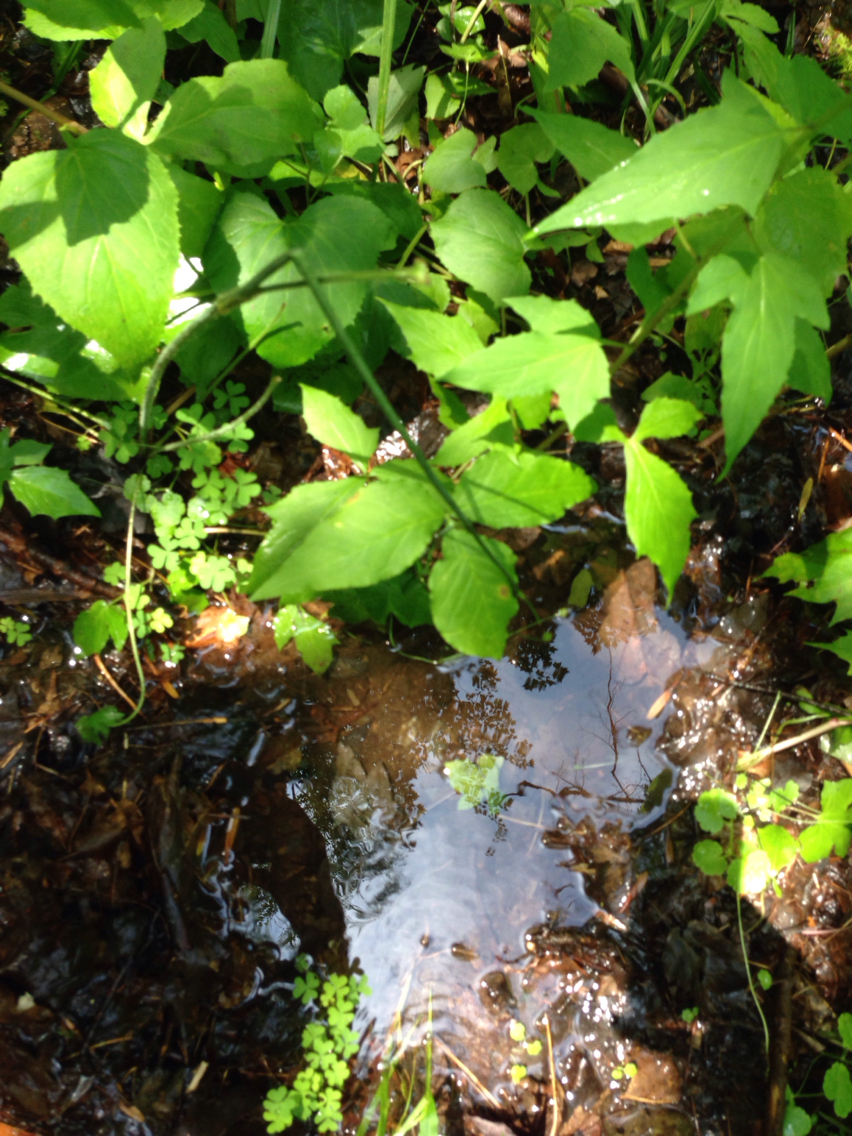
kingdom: Plantae
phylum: Tracheophyta
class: Liliopsida
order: Alismatales
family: Araceae
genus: Arisaema
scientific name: Arisaema triphyllum
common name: Jack-in-the-pulpit
